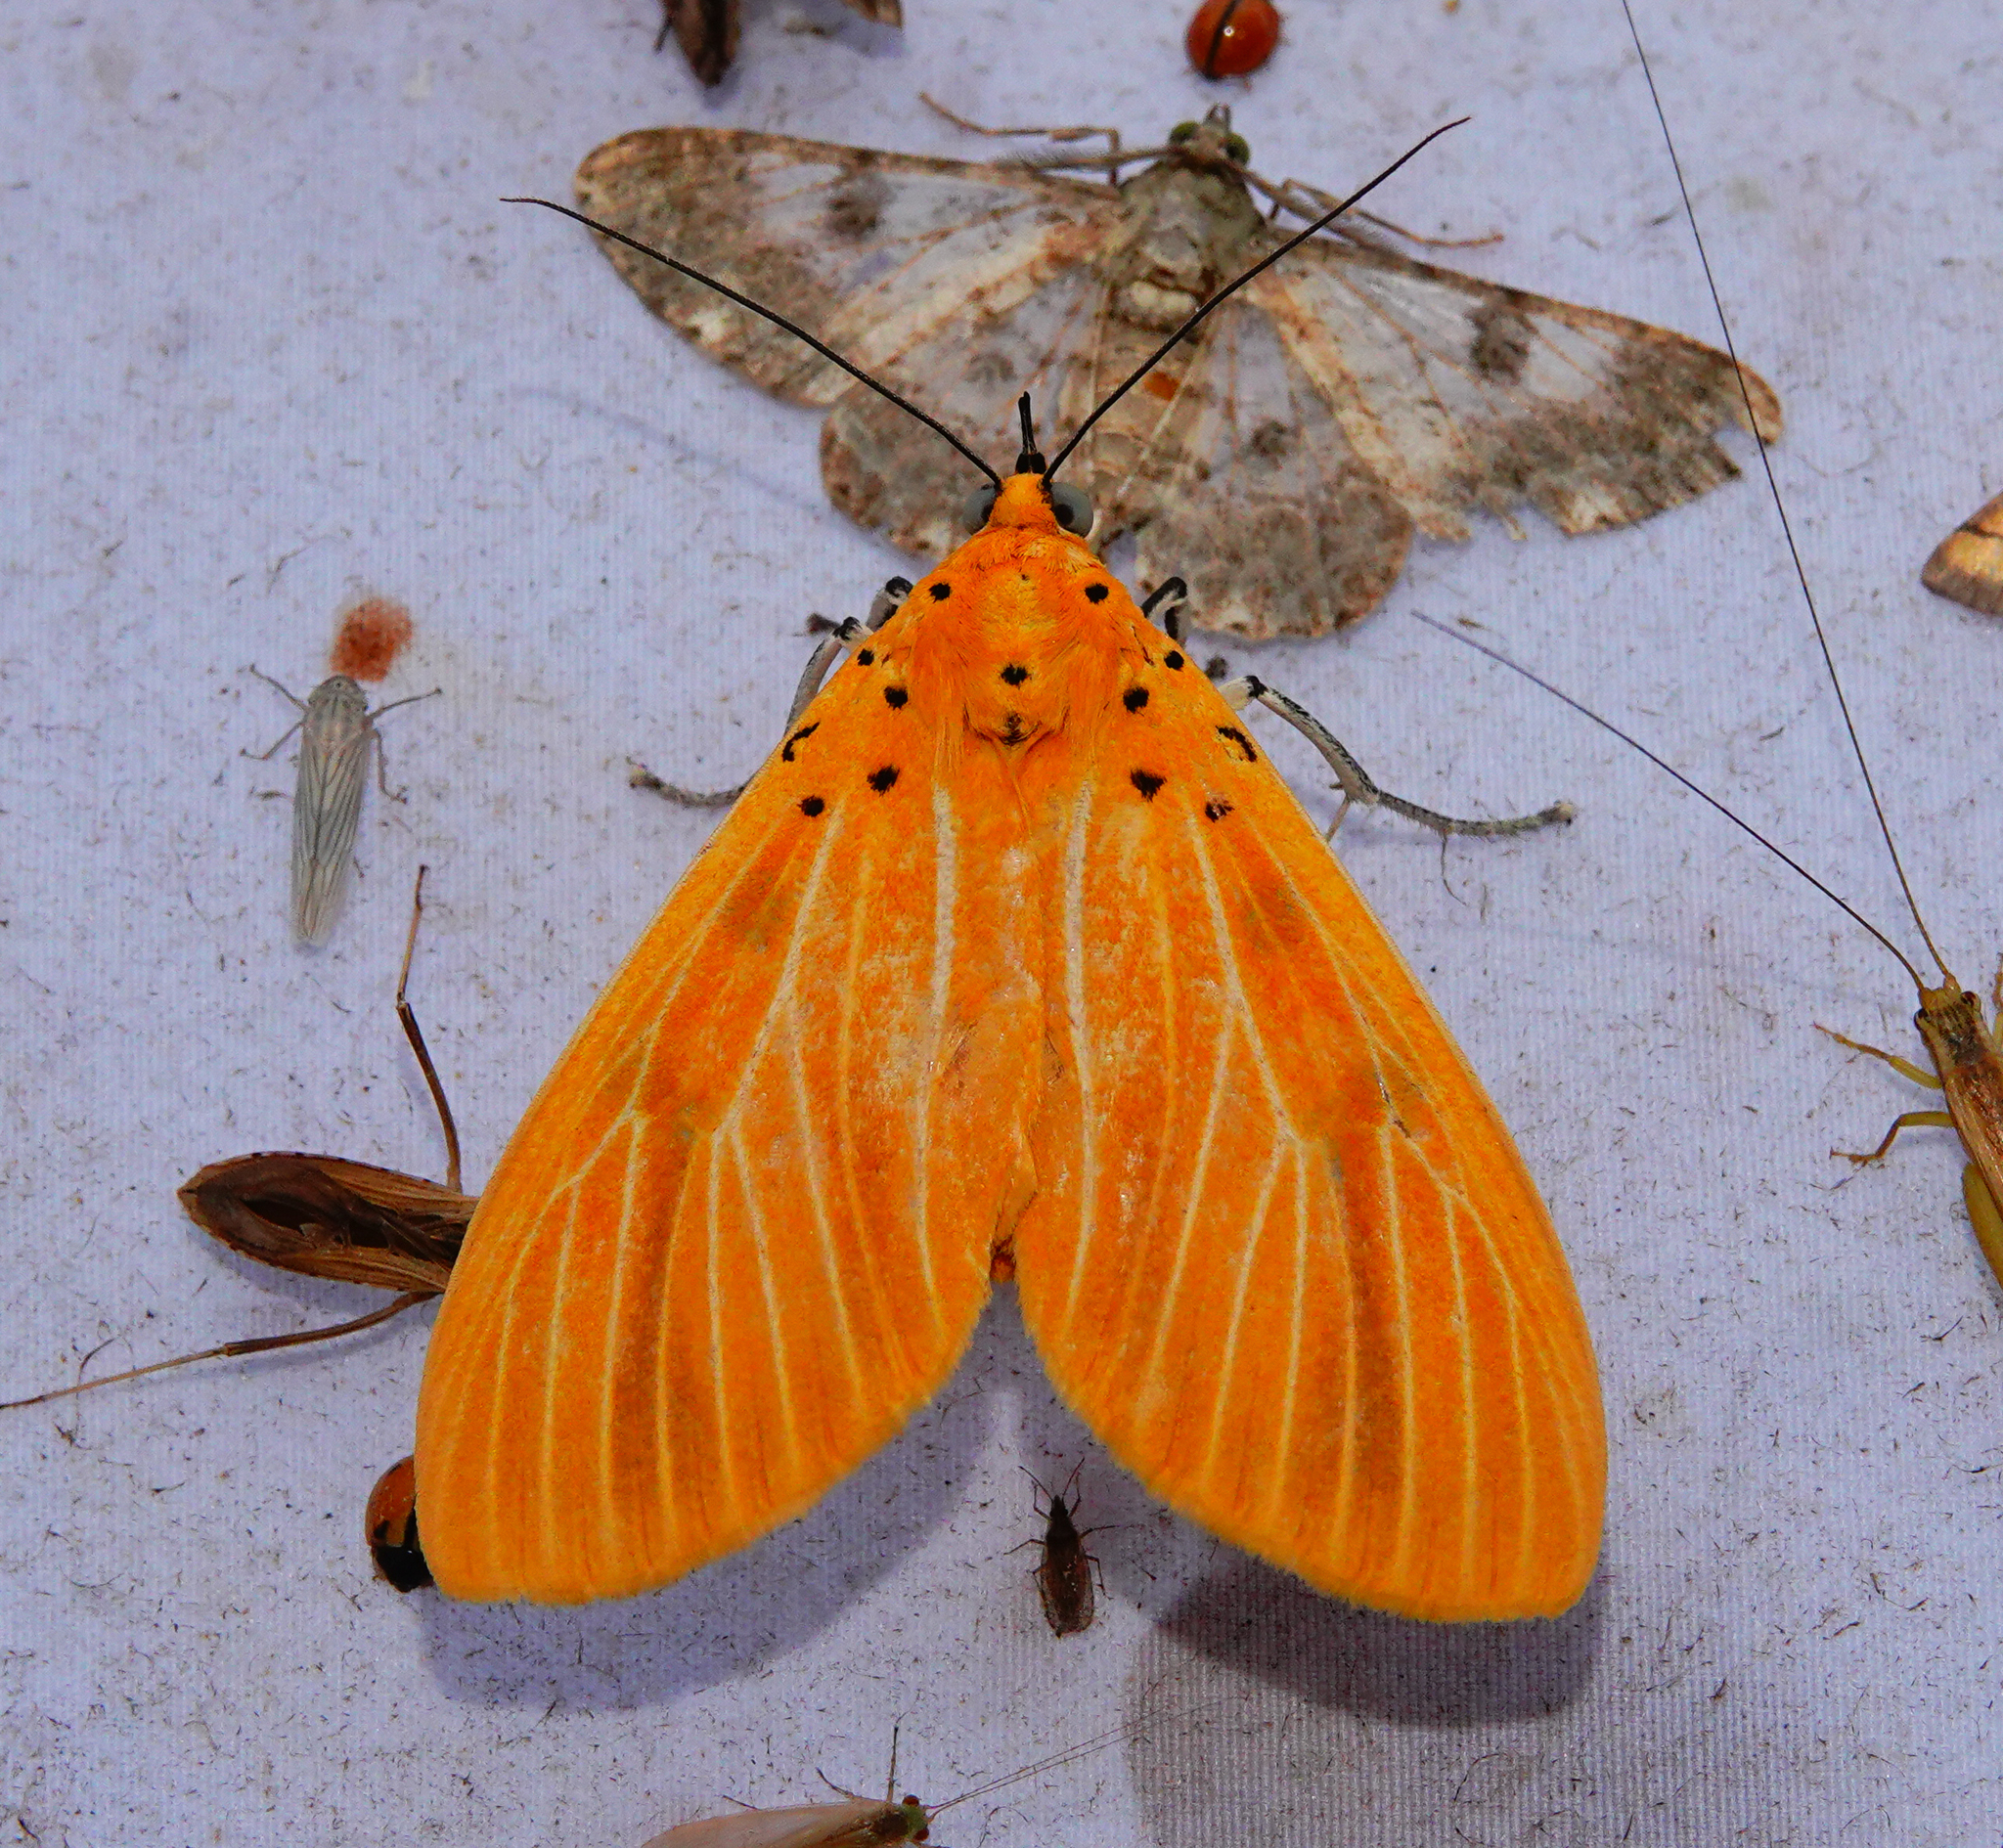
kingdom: Animalia
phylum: Arthropoda
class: Insecta
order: Lepidoptera
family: Erebidae
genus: Asota
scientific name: Asota egens
